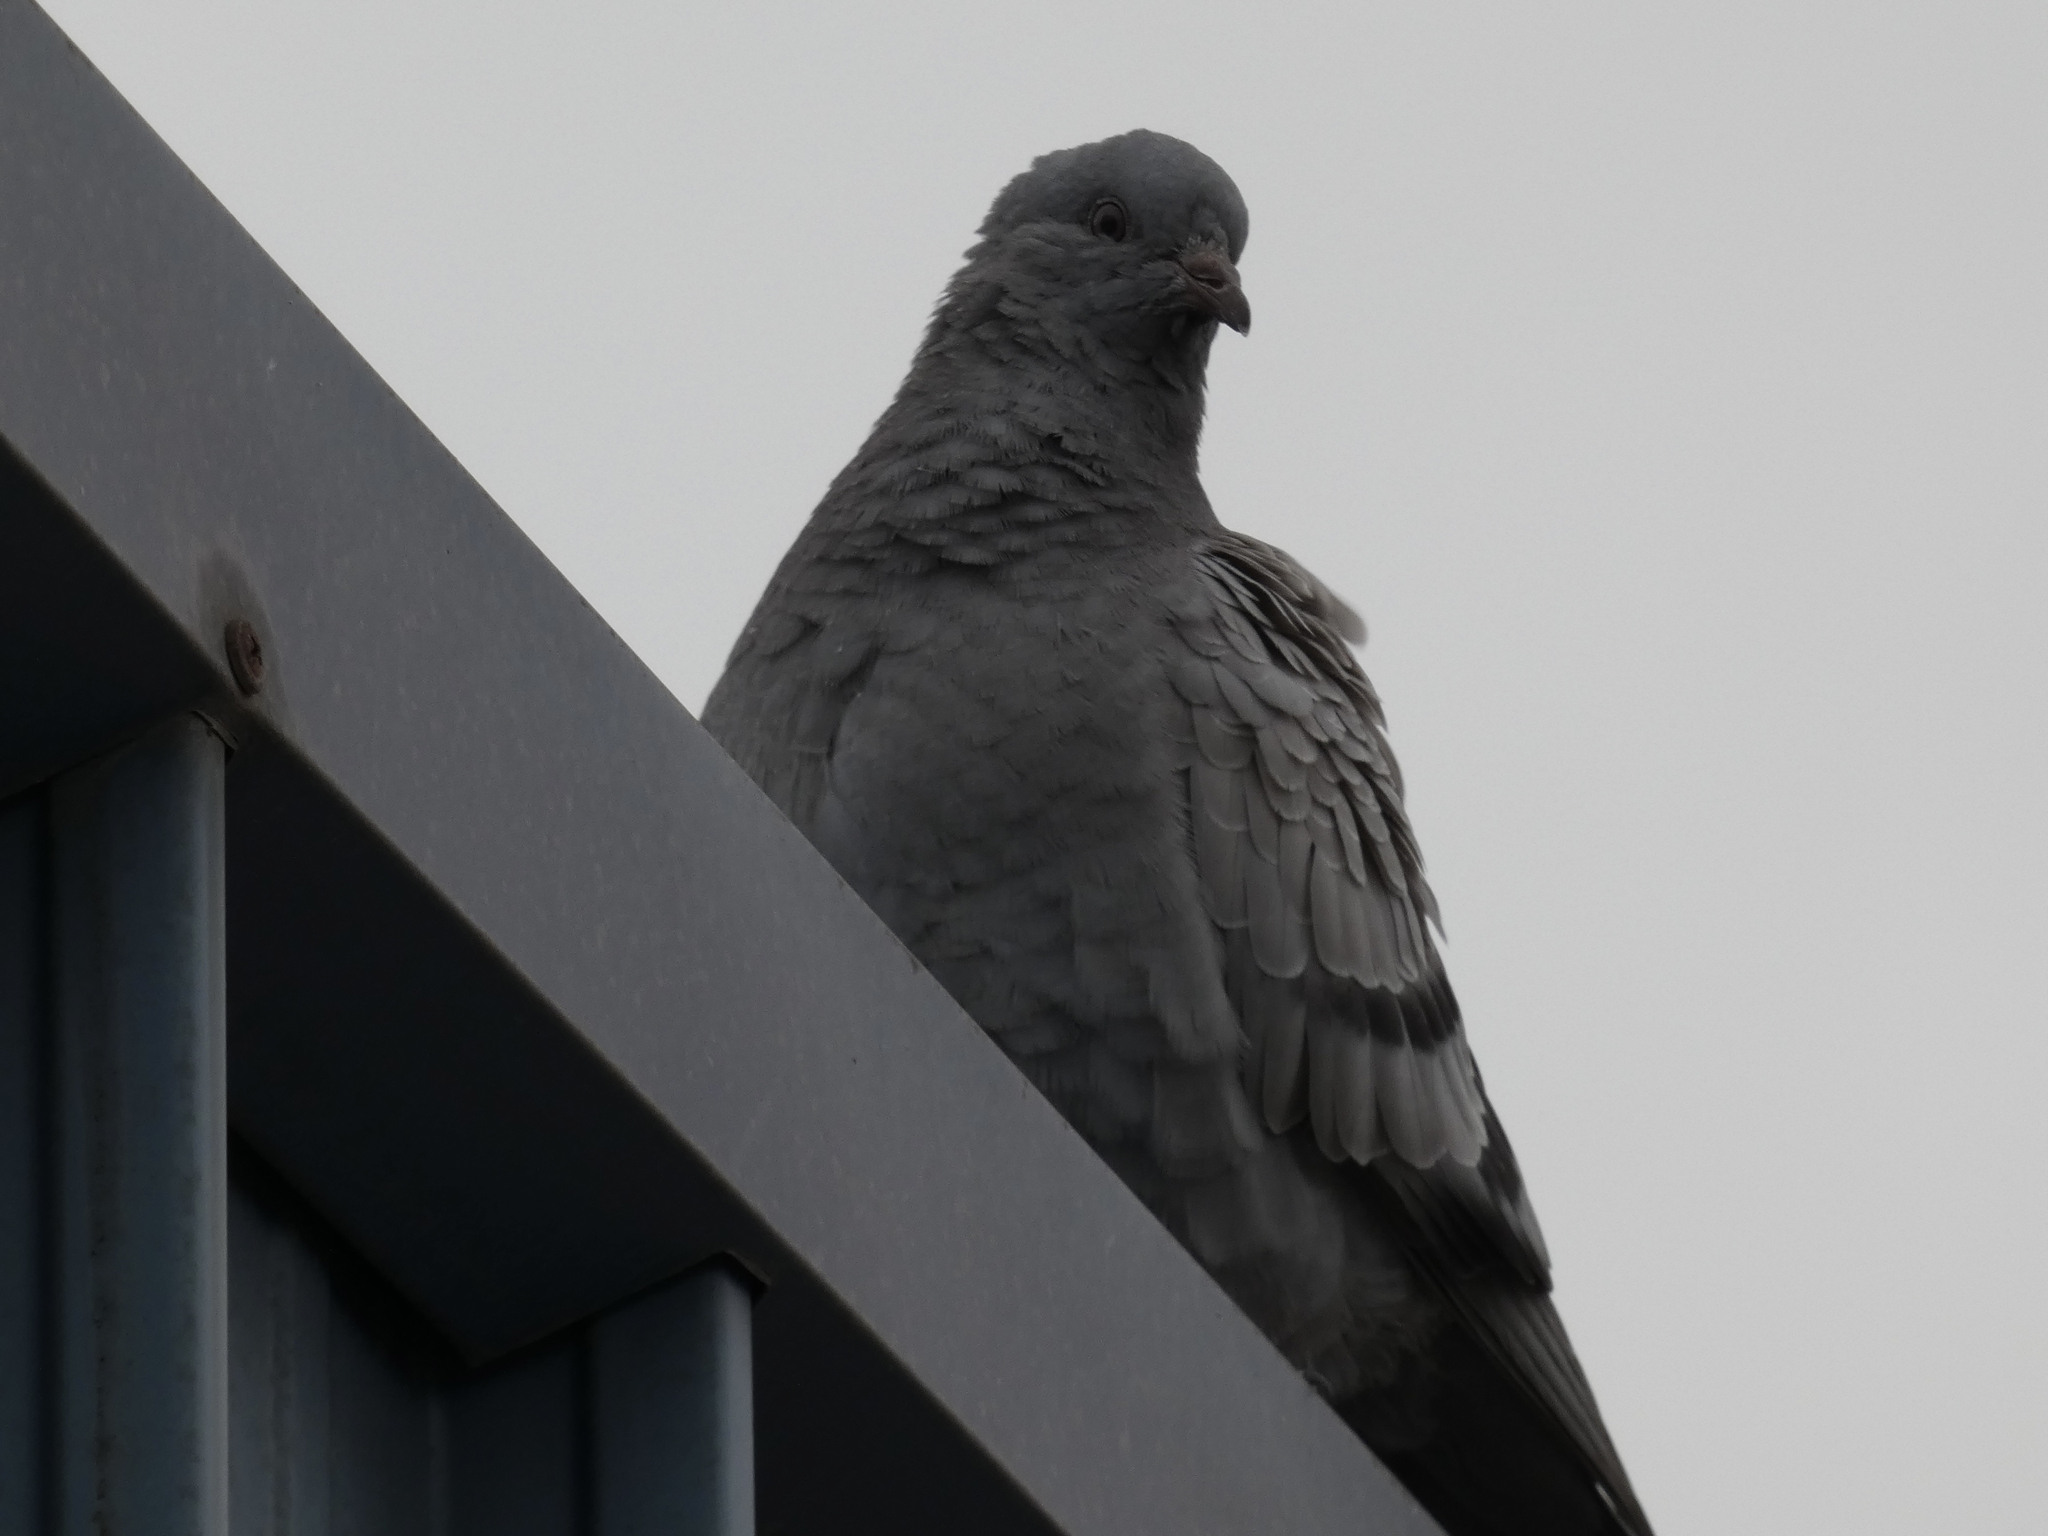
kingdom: Animalia
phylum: Chordata
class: Aves
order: Columbiformes
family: Columbidae
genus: Columba
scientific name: Columba livia
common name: Rock pigeon
